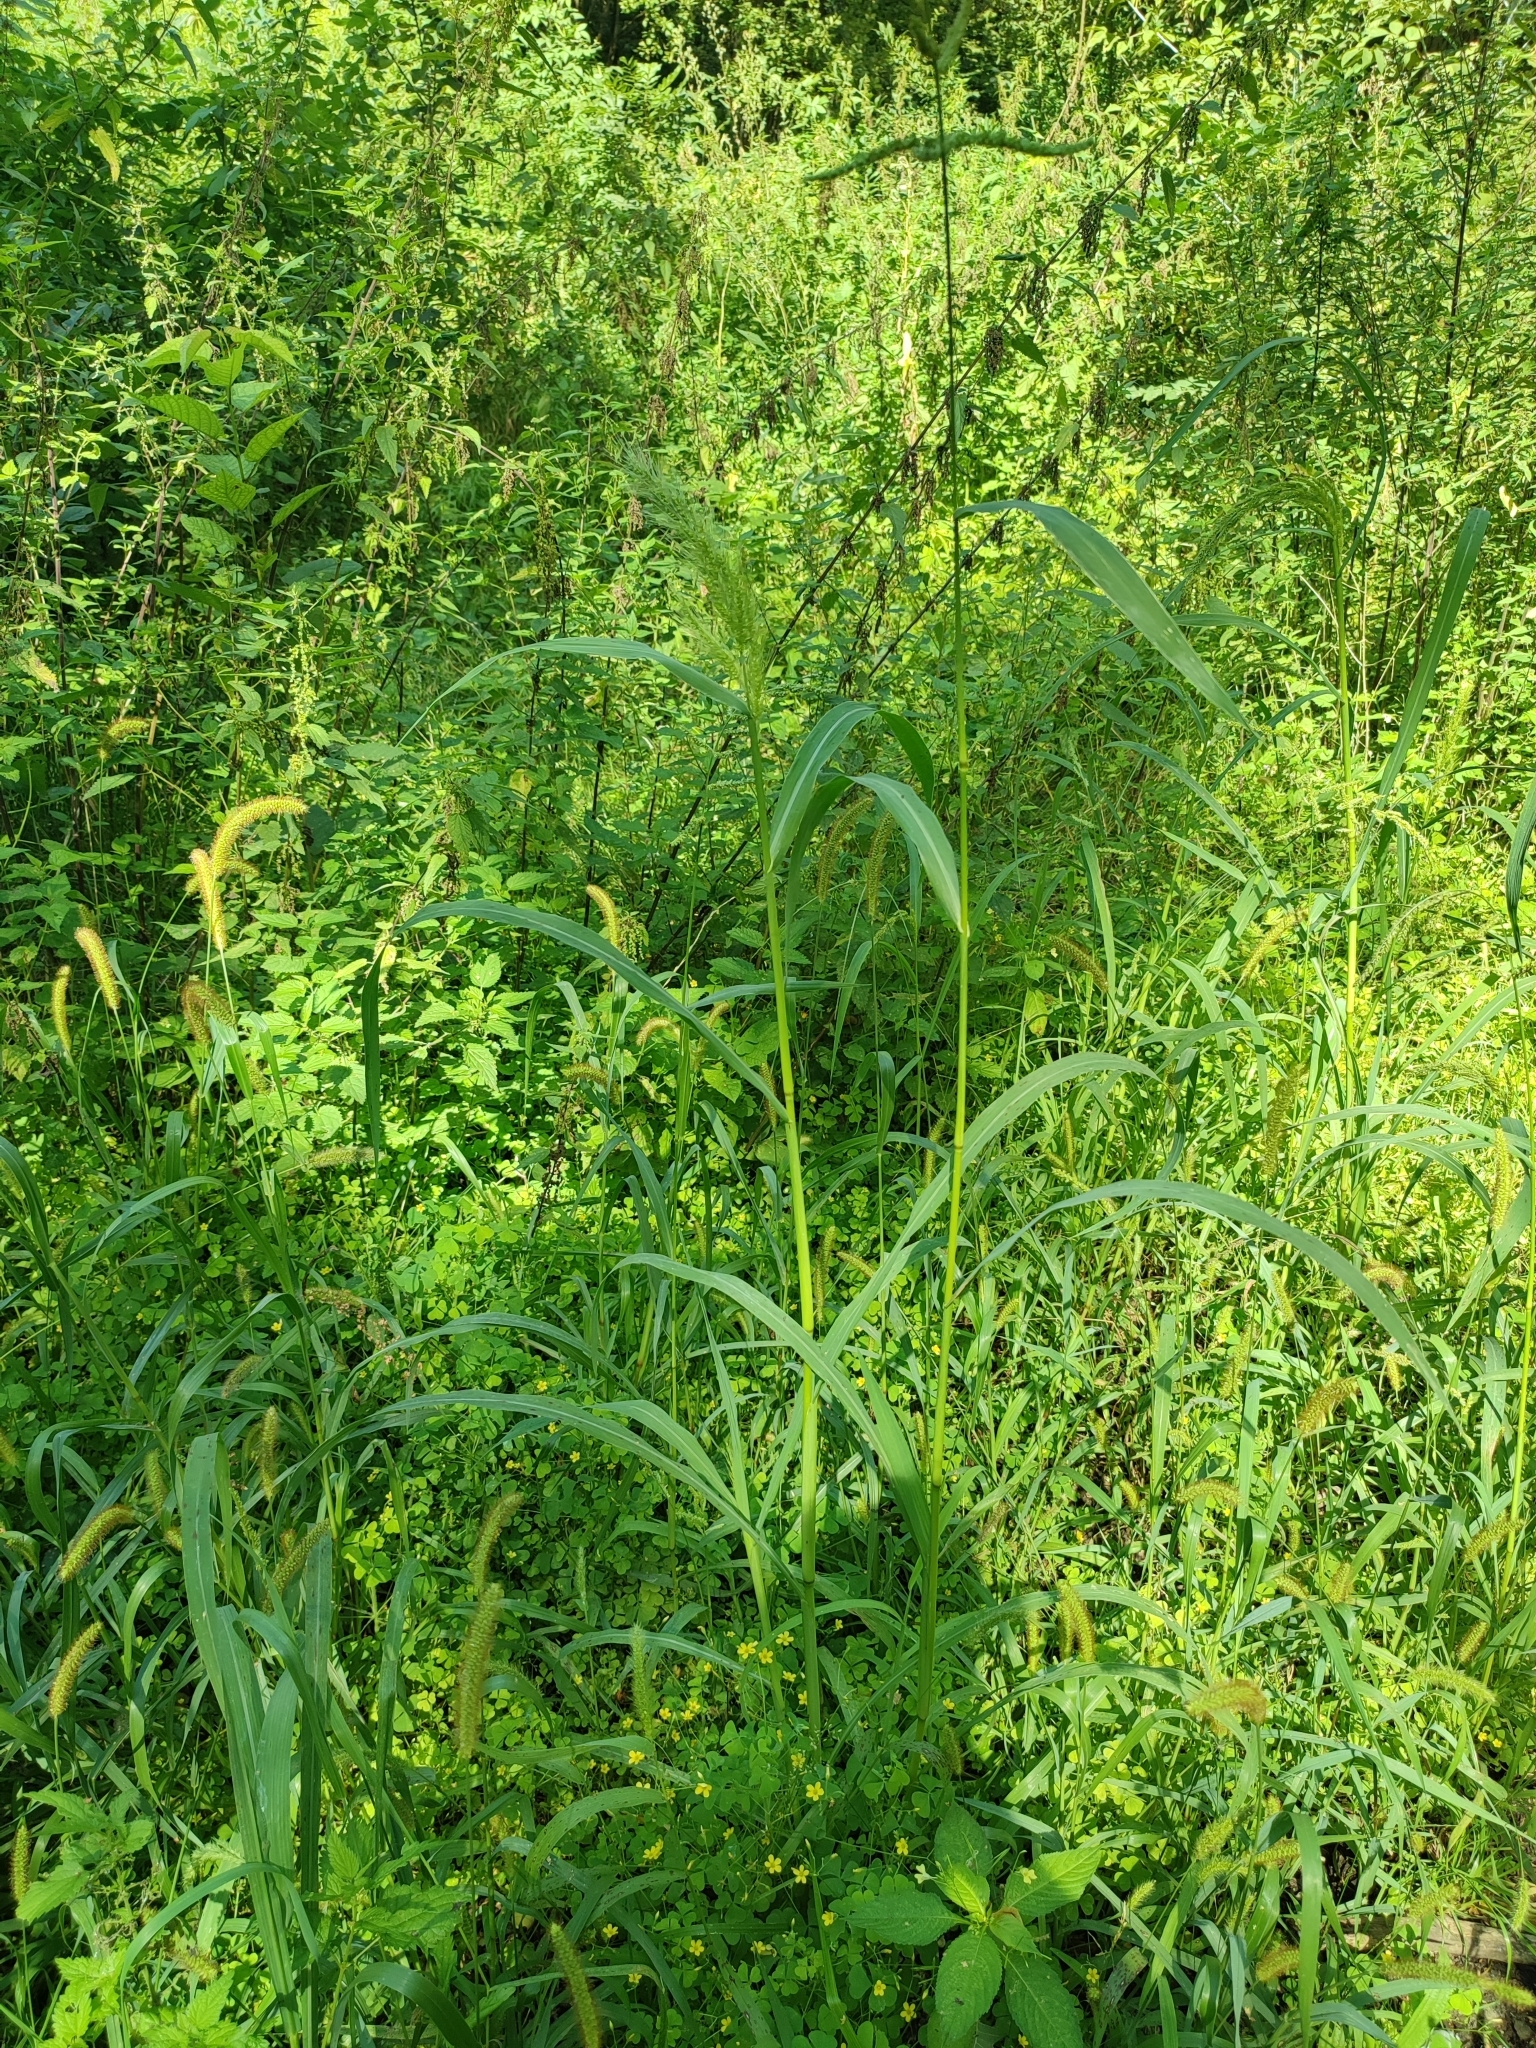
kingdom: Plantae
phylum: Tracheophyta
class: Liliopsida
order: Poales
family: Poaceae
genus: Echinochloa
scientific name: Echinochloa crus-galli
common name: Cockspur
